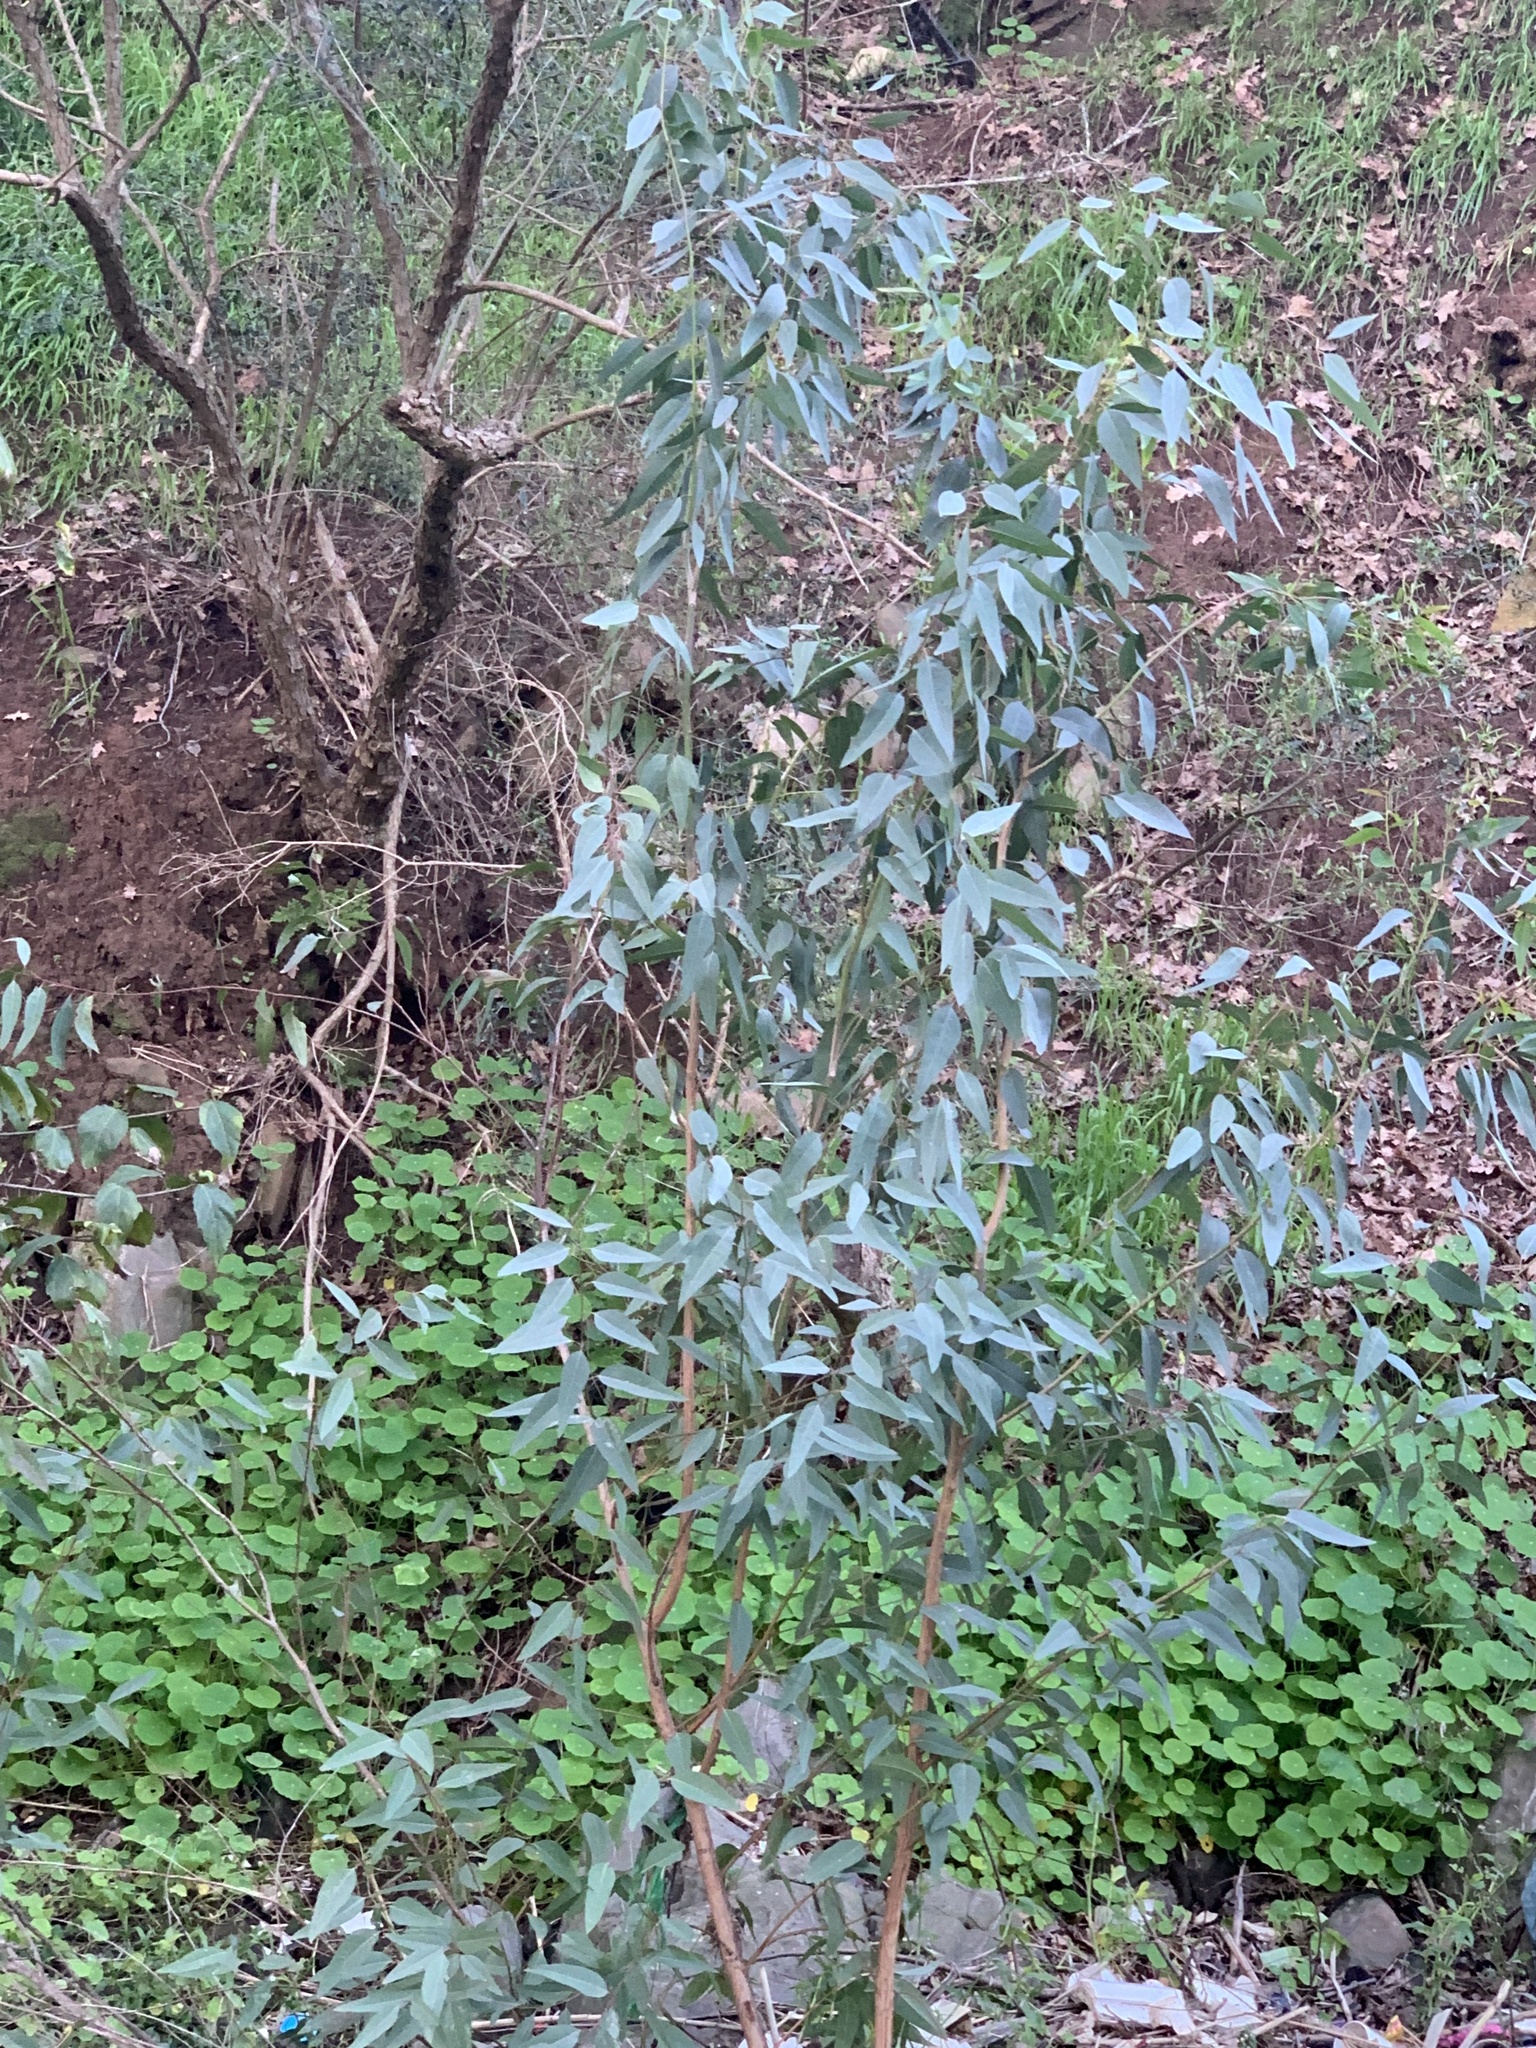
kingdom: Plantae
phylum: Tracheophyta
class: Magnoliopsida
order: Myrtales
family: Myrtaceae
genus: Eucalyptus
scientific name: Eucalyptus camaldulensis
